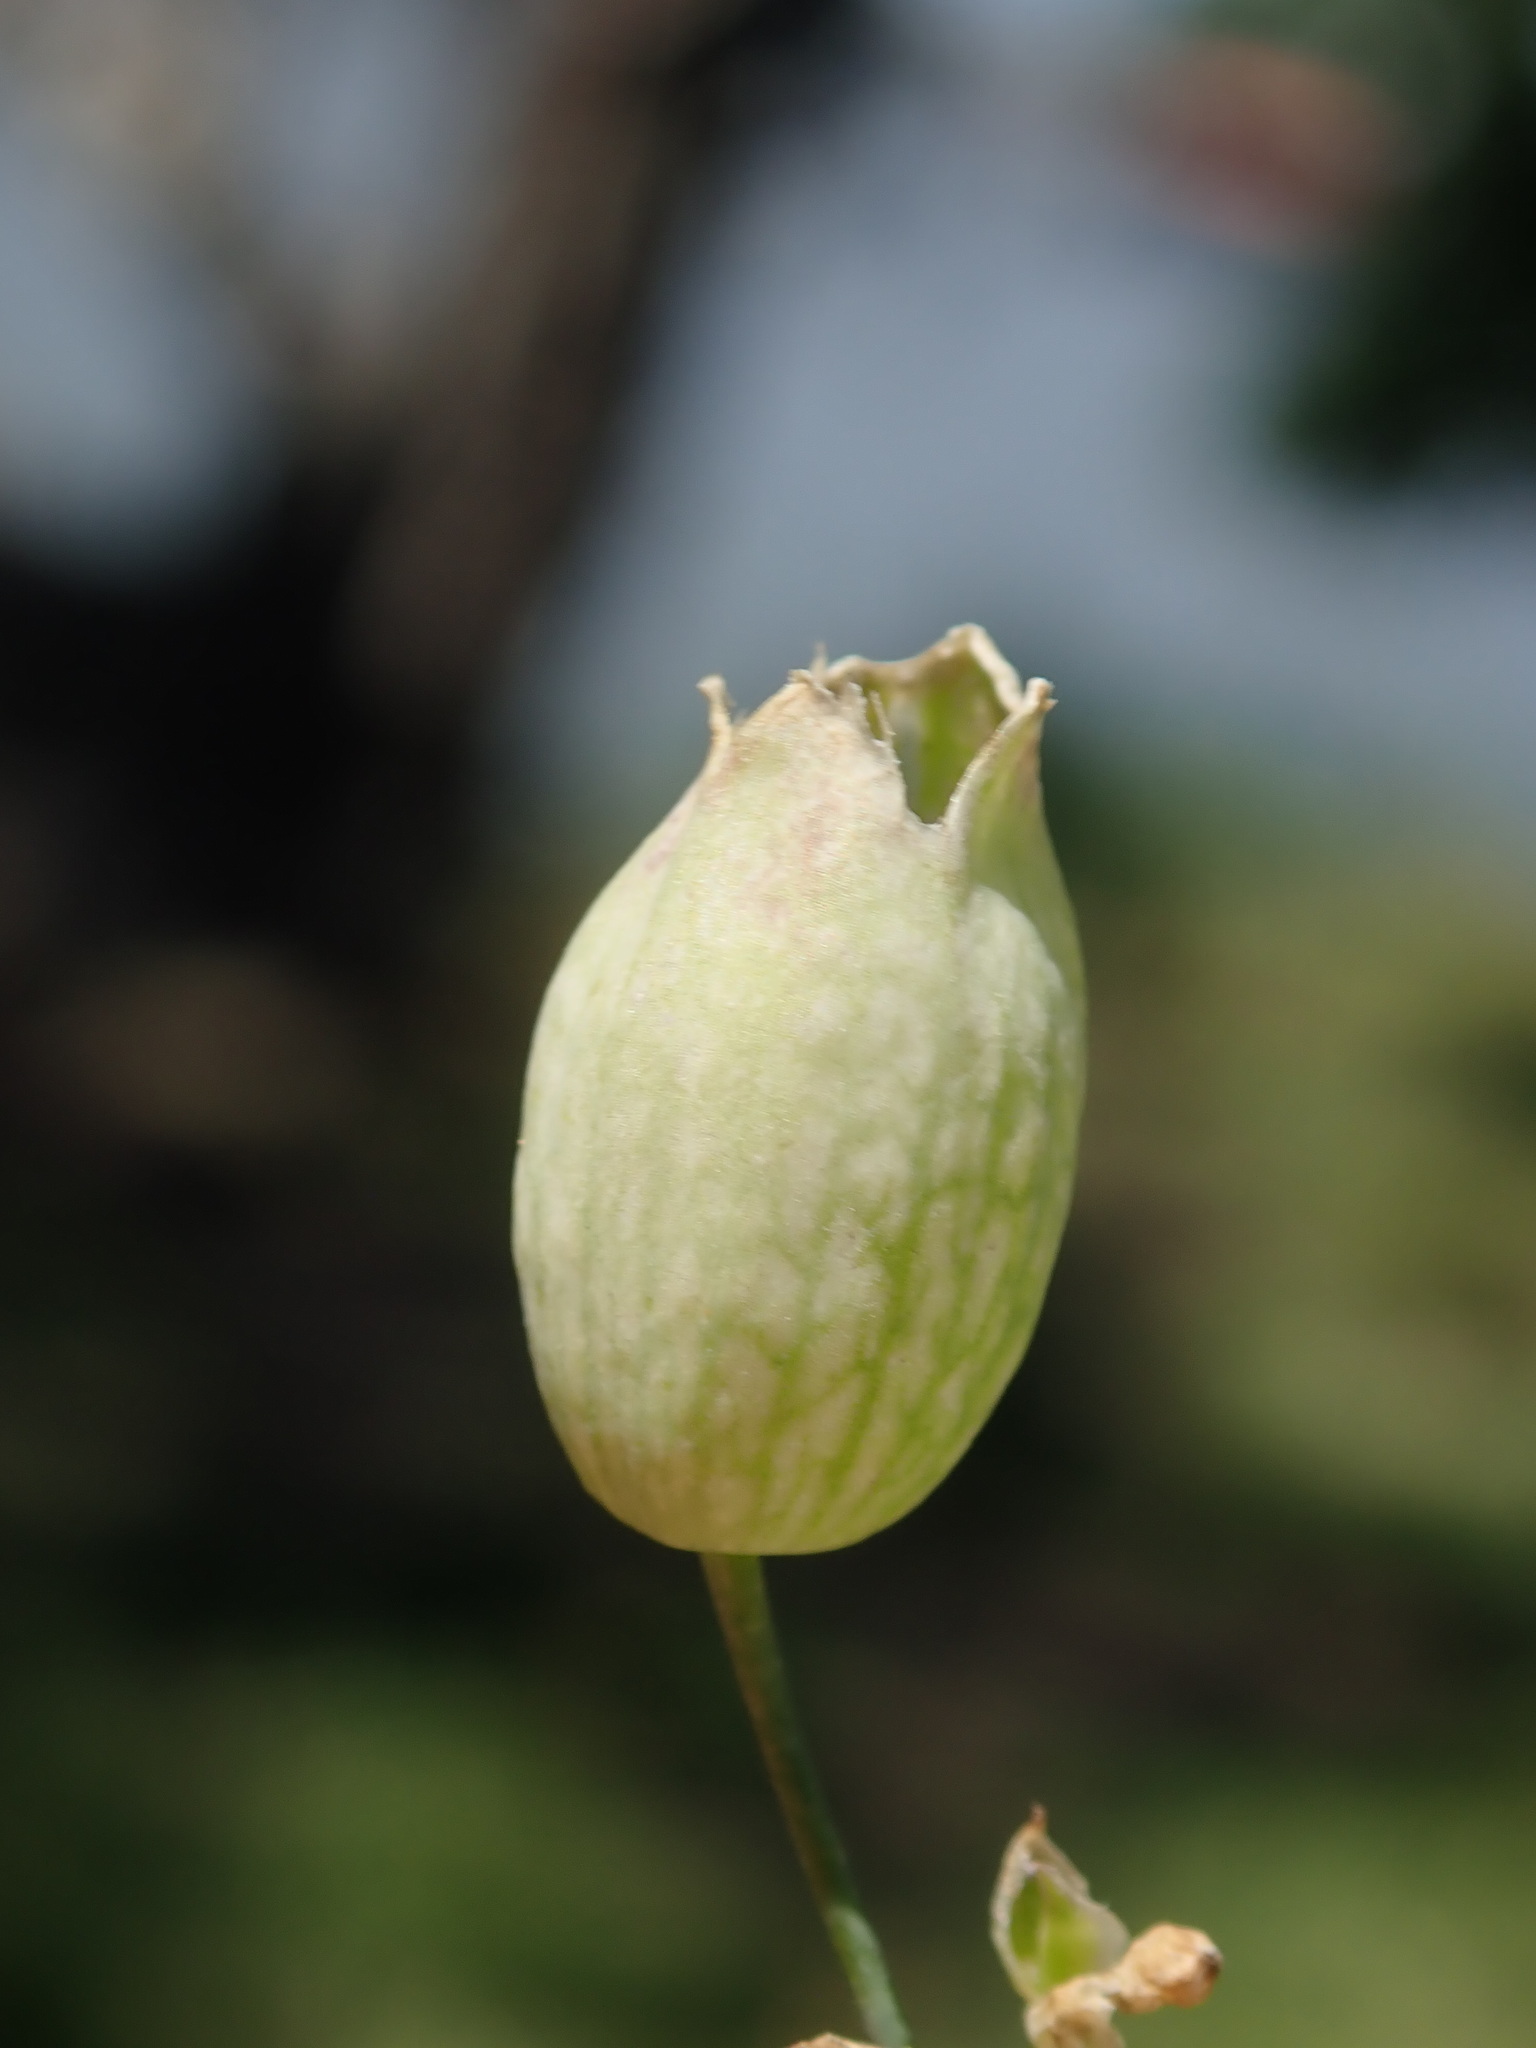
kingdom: Plantae
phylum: Tracheophyta
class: Magnoliopsida
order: Caryophyllales
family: Caryophyllaceae
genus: Silene
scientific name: Silene vulgaris
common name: Bladder campion
